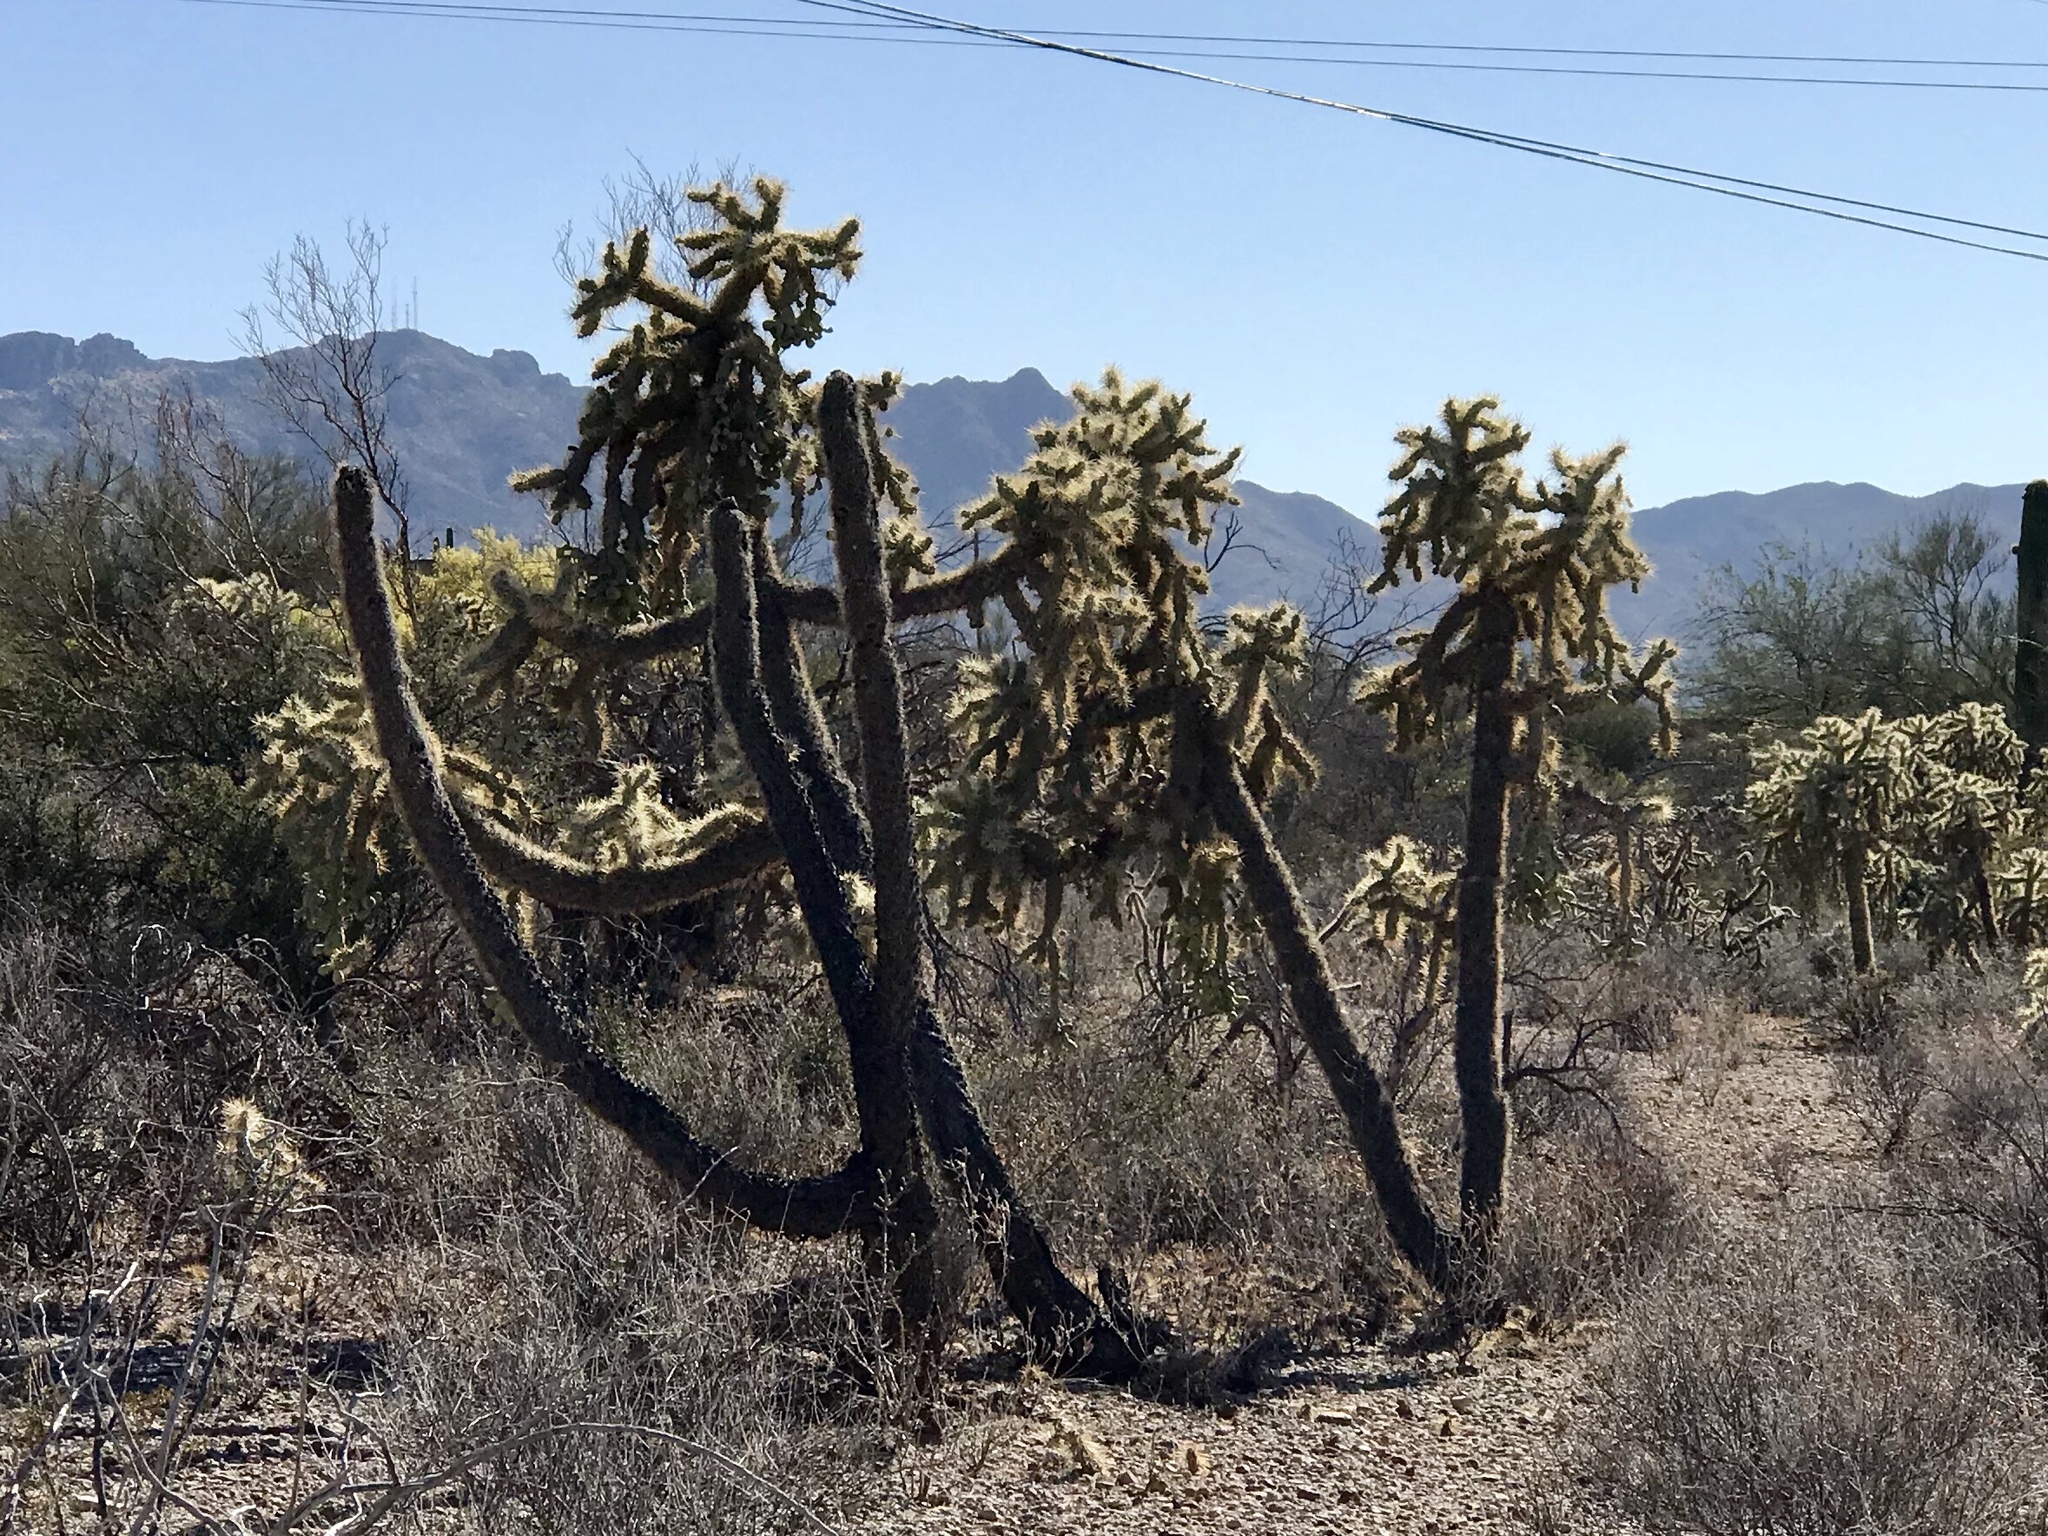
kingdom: Plantae
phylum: Tracheophyta
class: Magnoliopsida
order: Caryophyllales
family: Cactaceae
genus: Cylindropuntia
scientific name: Cylindropuntia fulgida
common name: Jumping cholla
